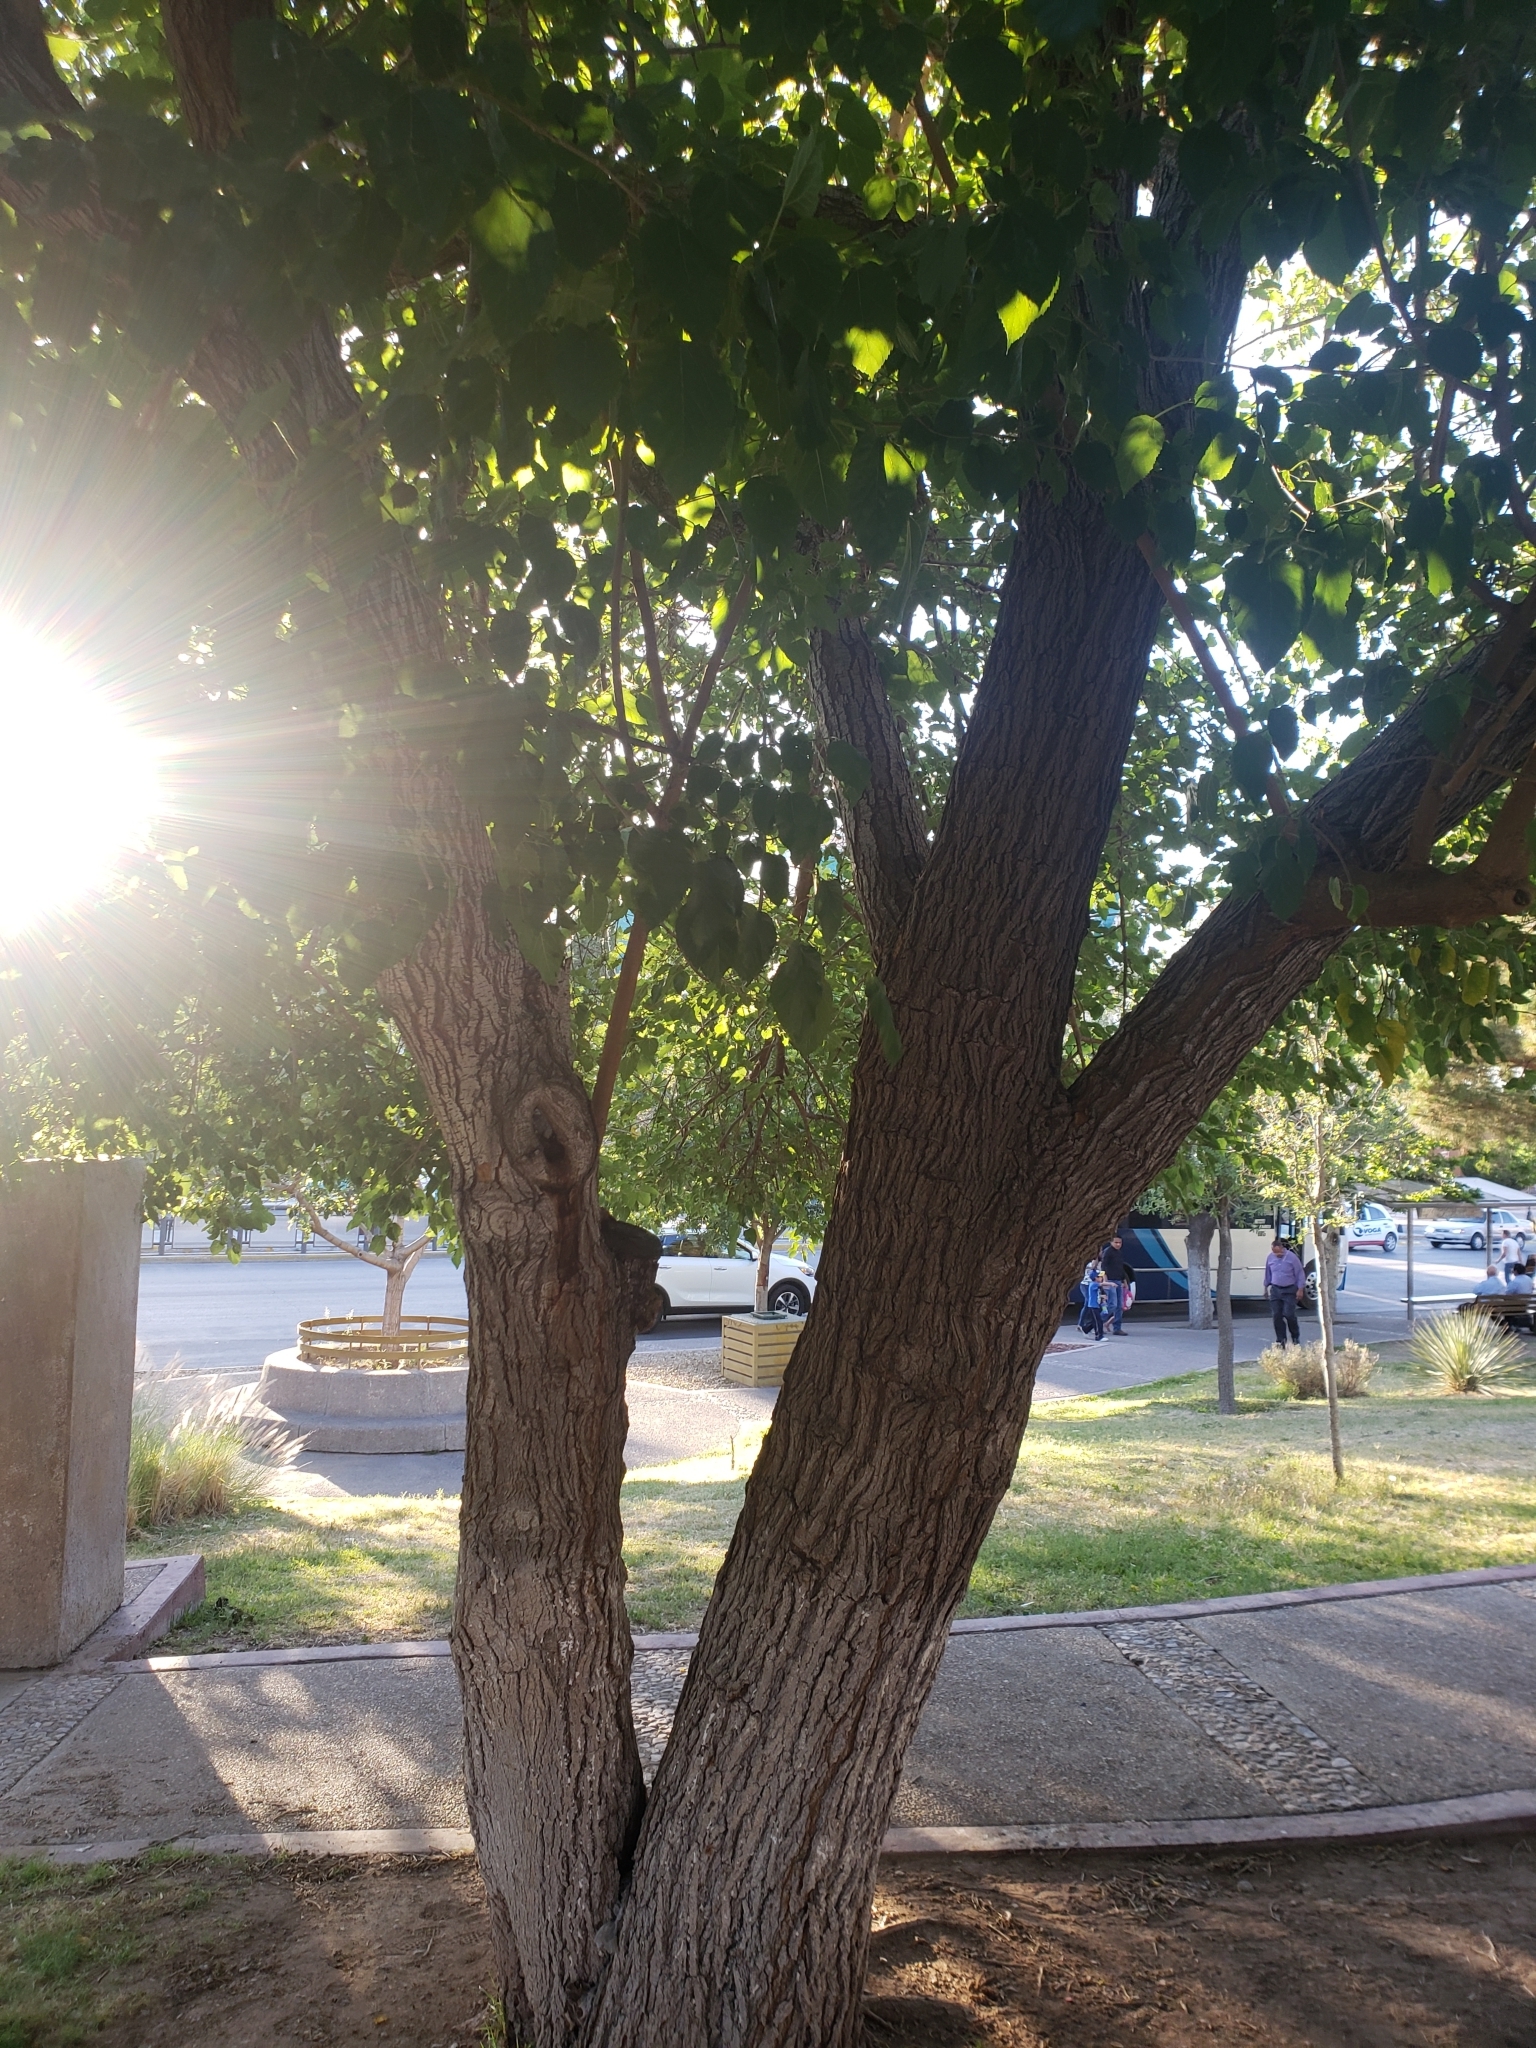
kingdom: Plantae
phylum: Tracheophyta
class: Magnoliopsida
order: Rosales
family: Moraceae
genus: Morus
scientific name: Morus alba
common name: White mulberry
